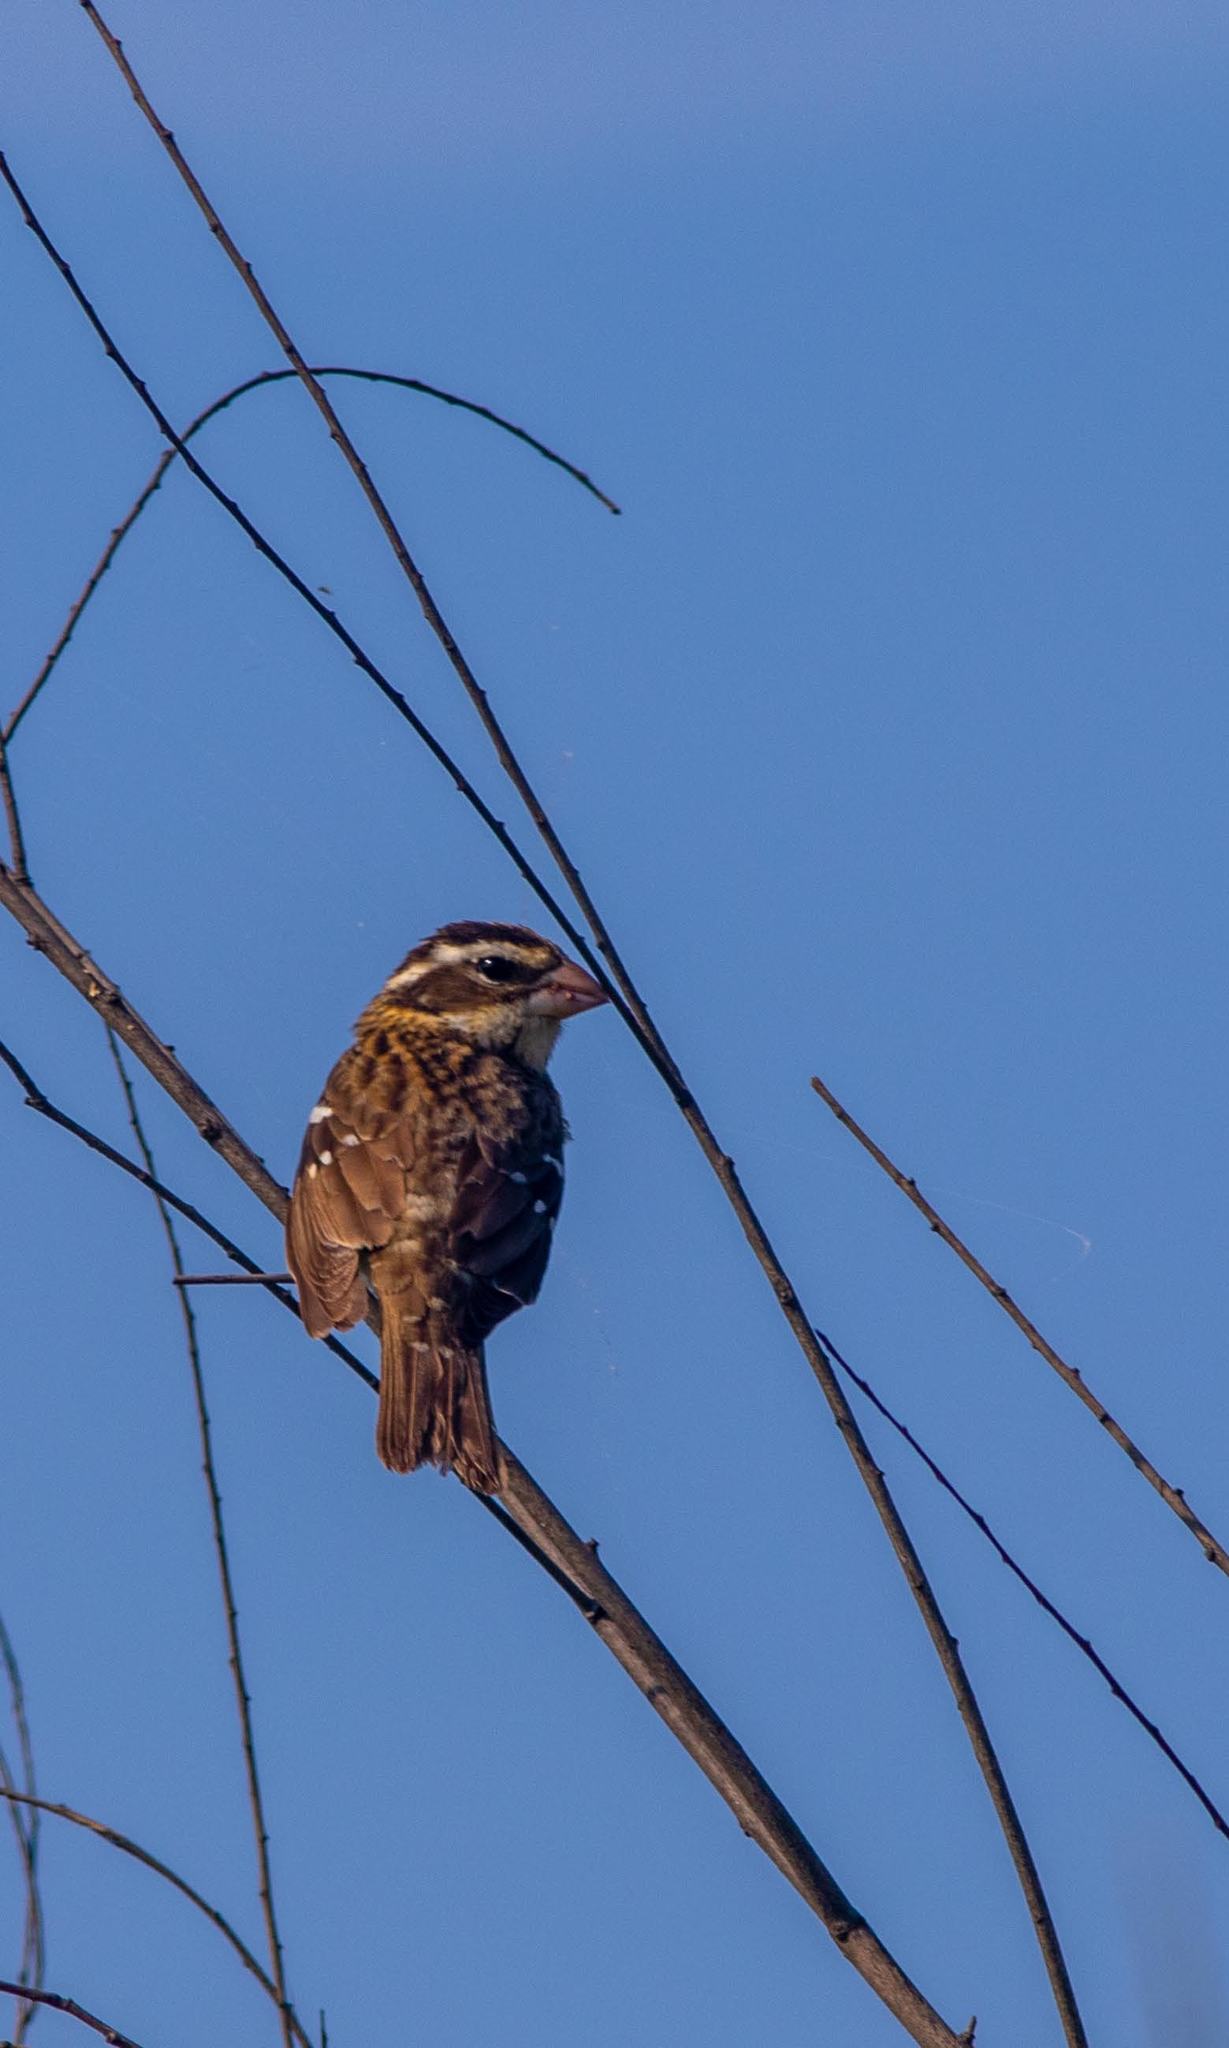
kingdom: Animalia
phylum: Chordata
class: Aves
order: Passeriformes
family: Cardinalidae
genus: Pheucticus
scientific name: Pheucticus ludovicianus
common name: Rose-breasted grosbeak
